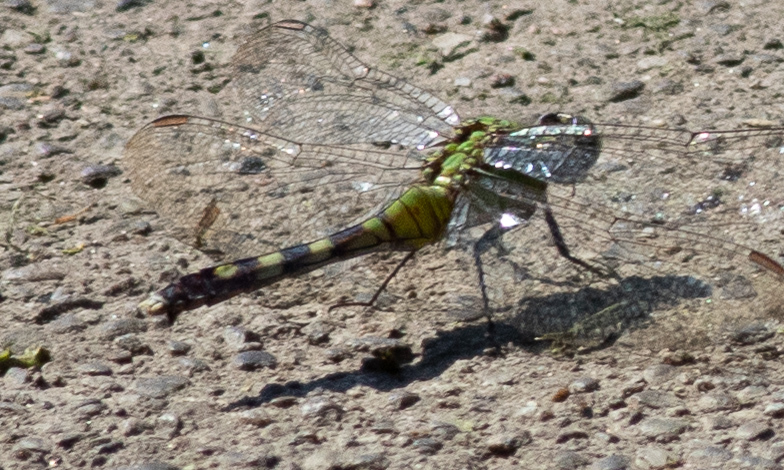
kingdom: Animalia
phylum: Arthropoda
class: Insecta
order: Odonata
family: Libellulidae
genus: Erythemis
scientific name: Erythemis simplicicollis
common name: Eastern pondhawk
